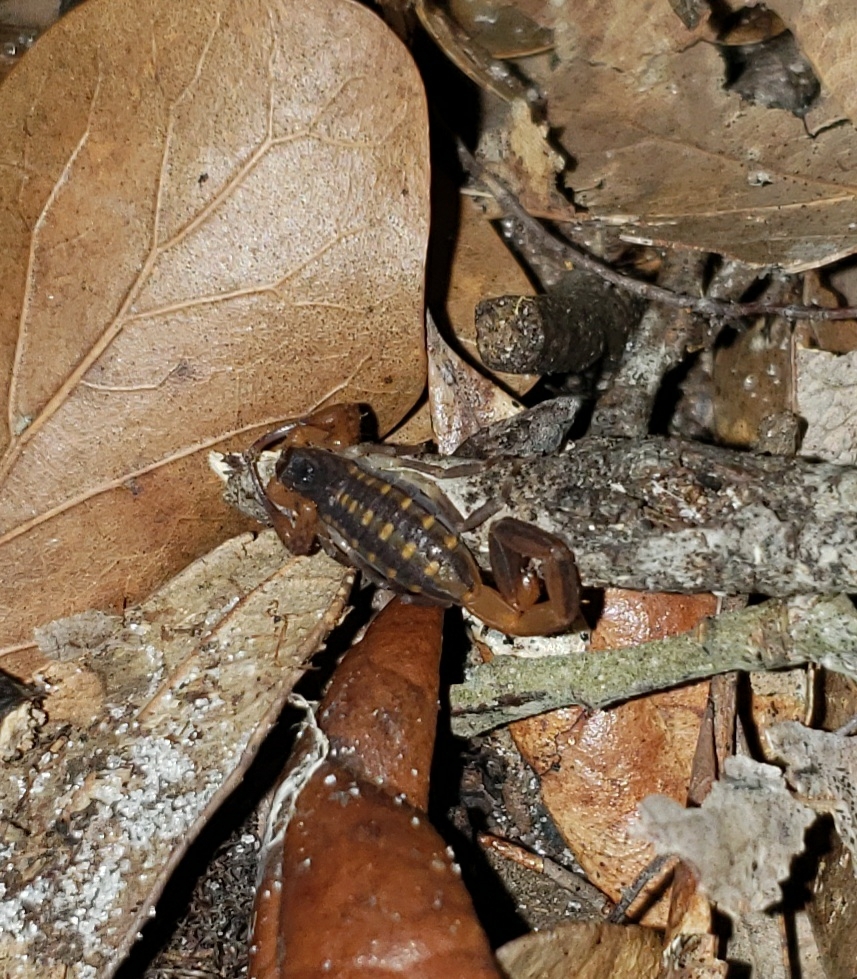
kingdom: Animalia
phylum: Arthropoda
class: Arachnida
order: Scorpiones
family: Buthidae
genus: Centruroides
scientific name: Centruroides hentzi
